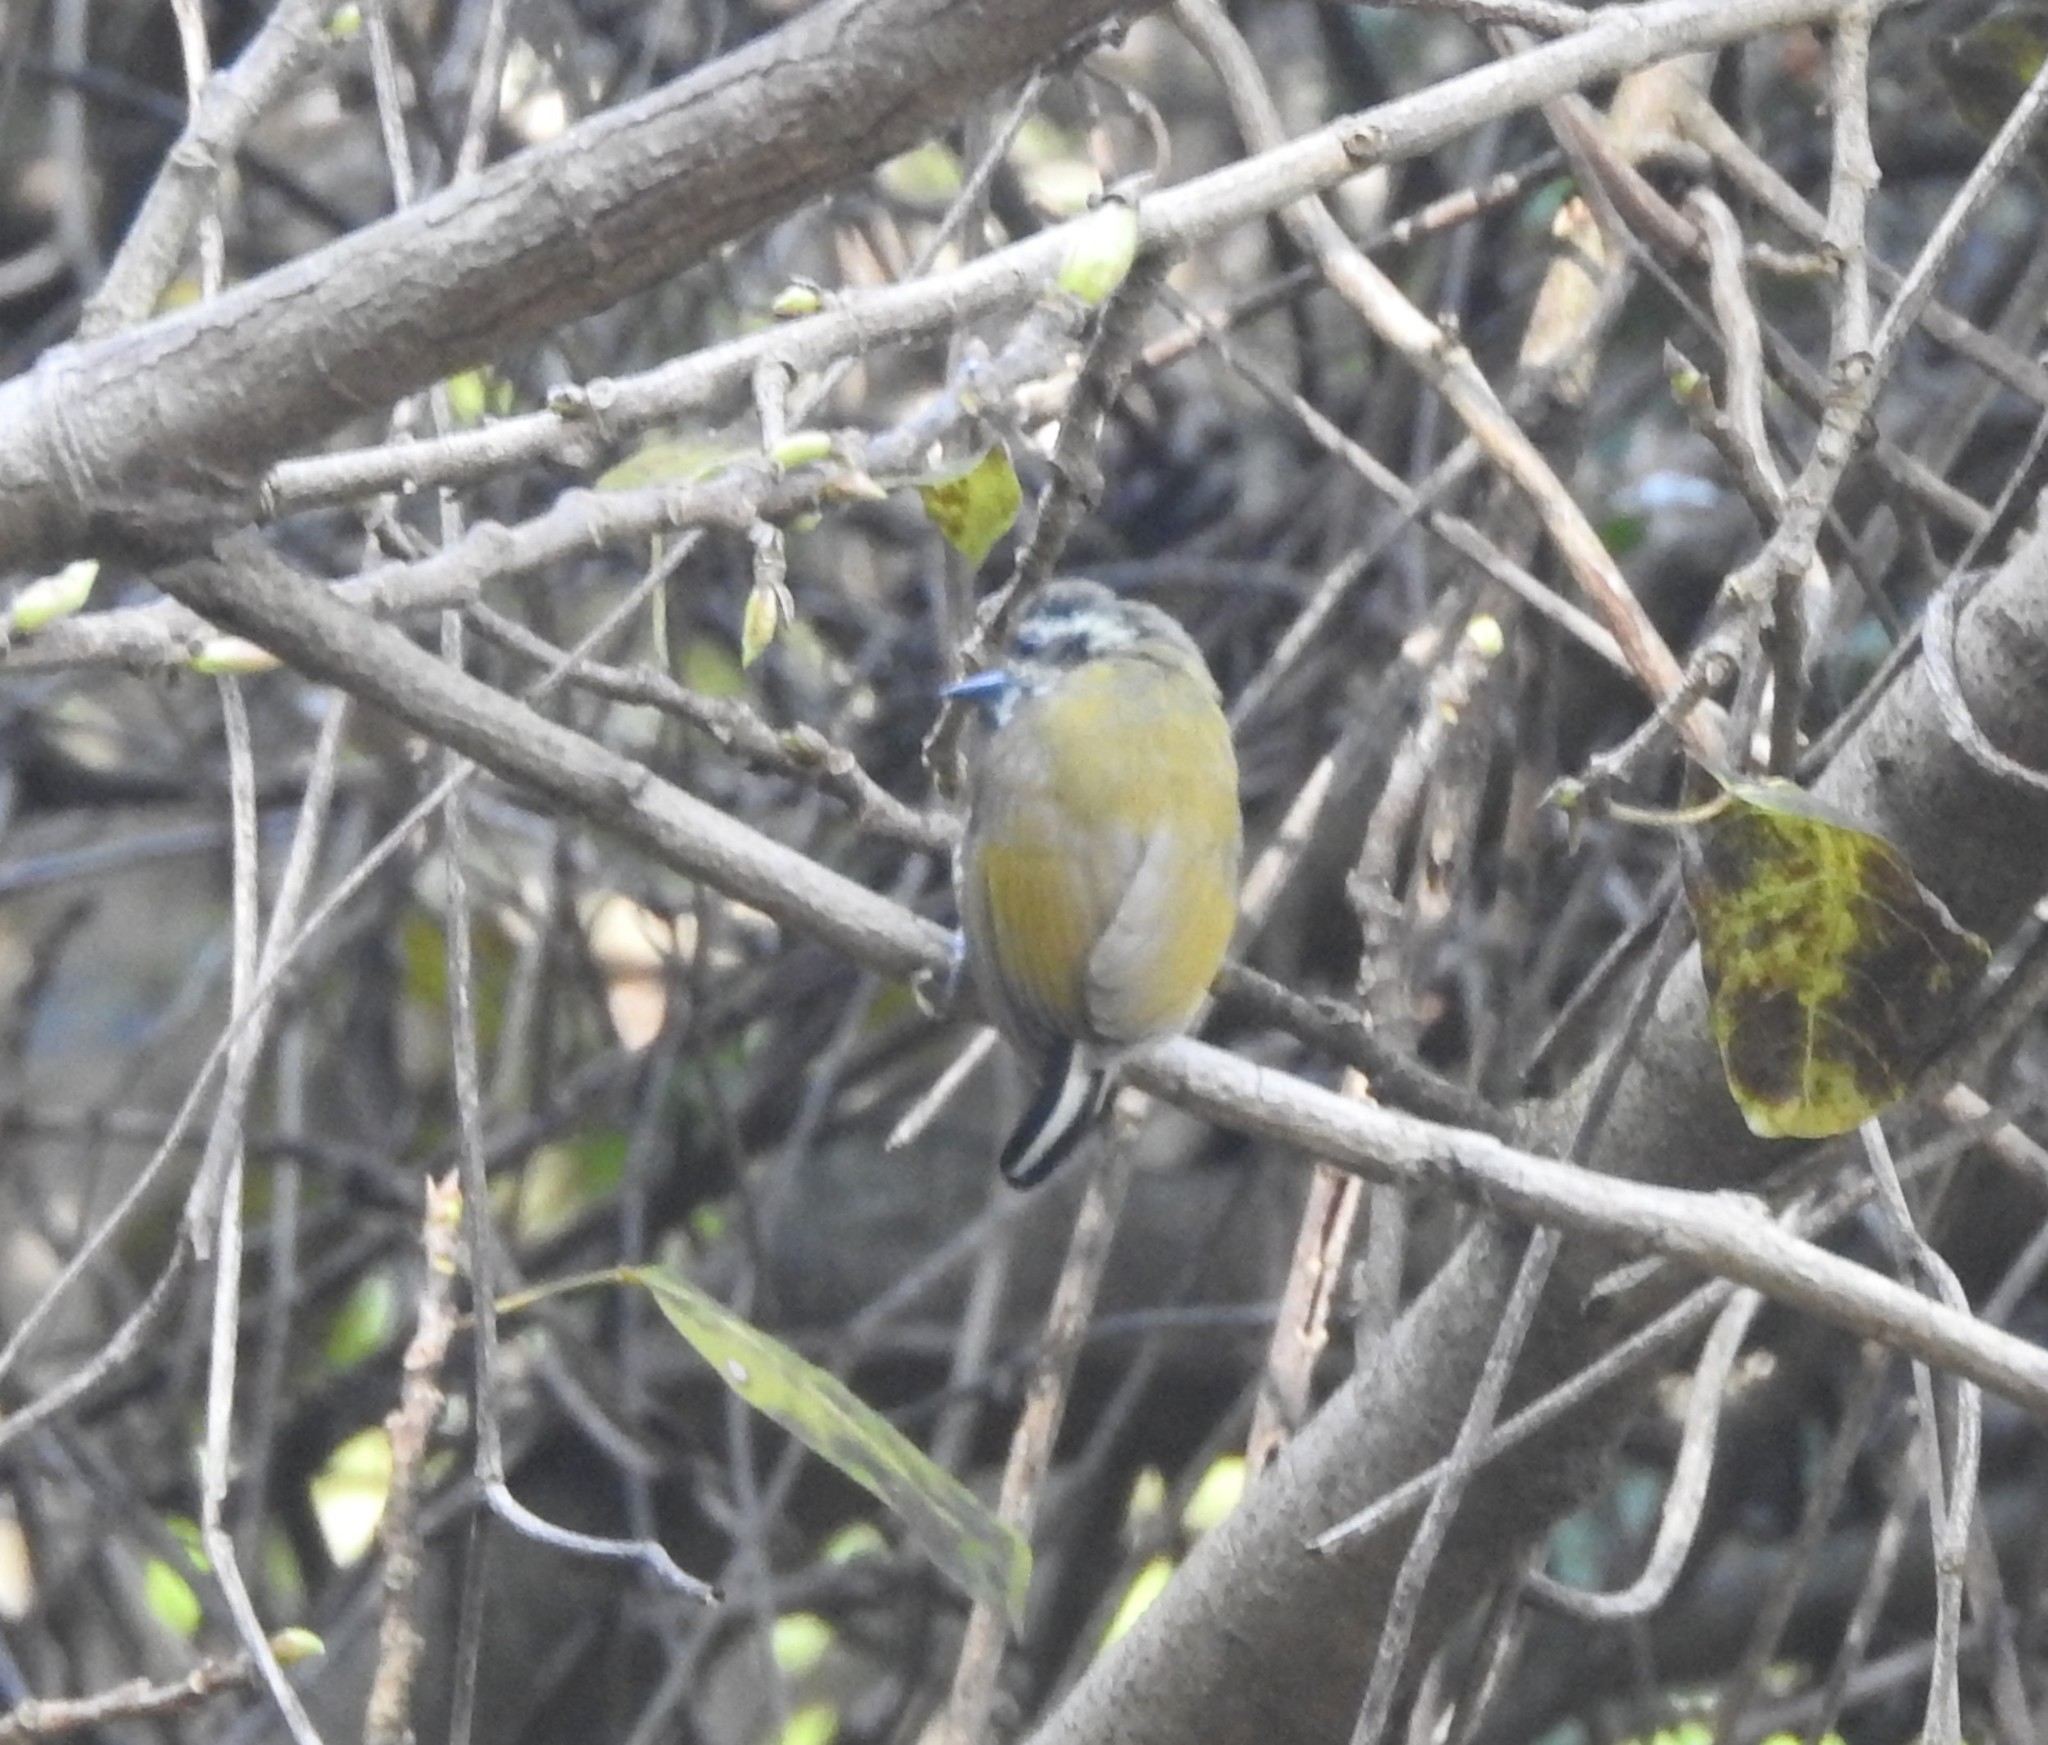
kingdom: Animalia
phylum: Chordata
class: Aves
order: Piciformes
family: Picidae
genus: Picumnus
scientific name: Picumnus innominatus
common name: Speckled piculet
